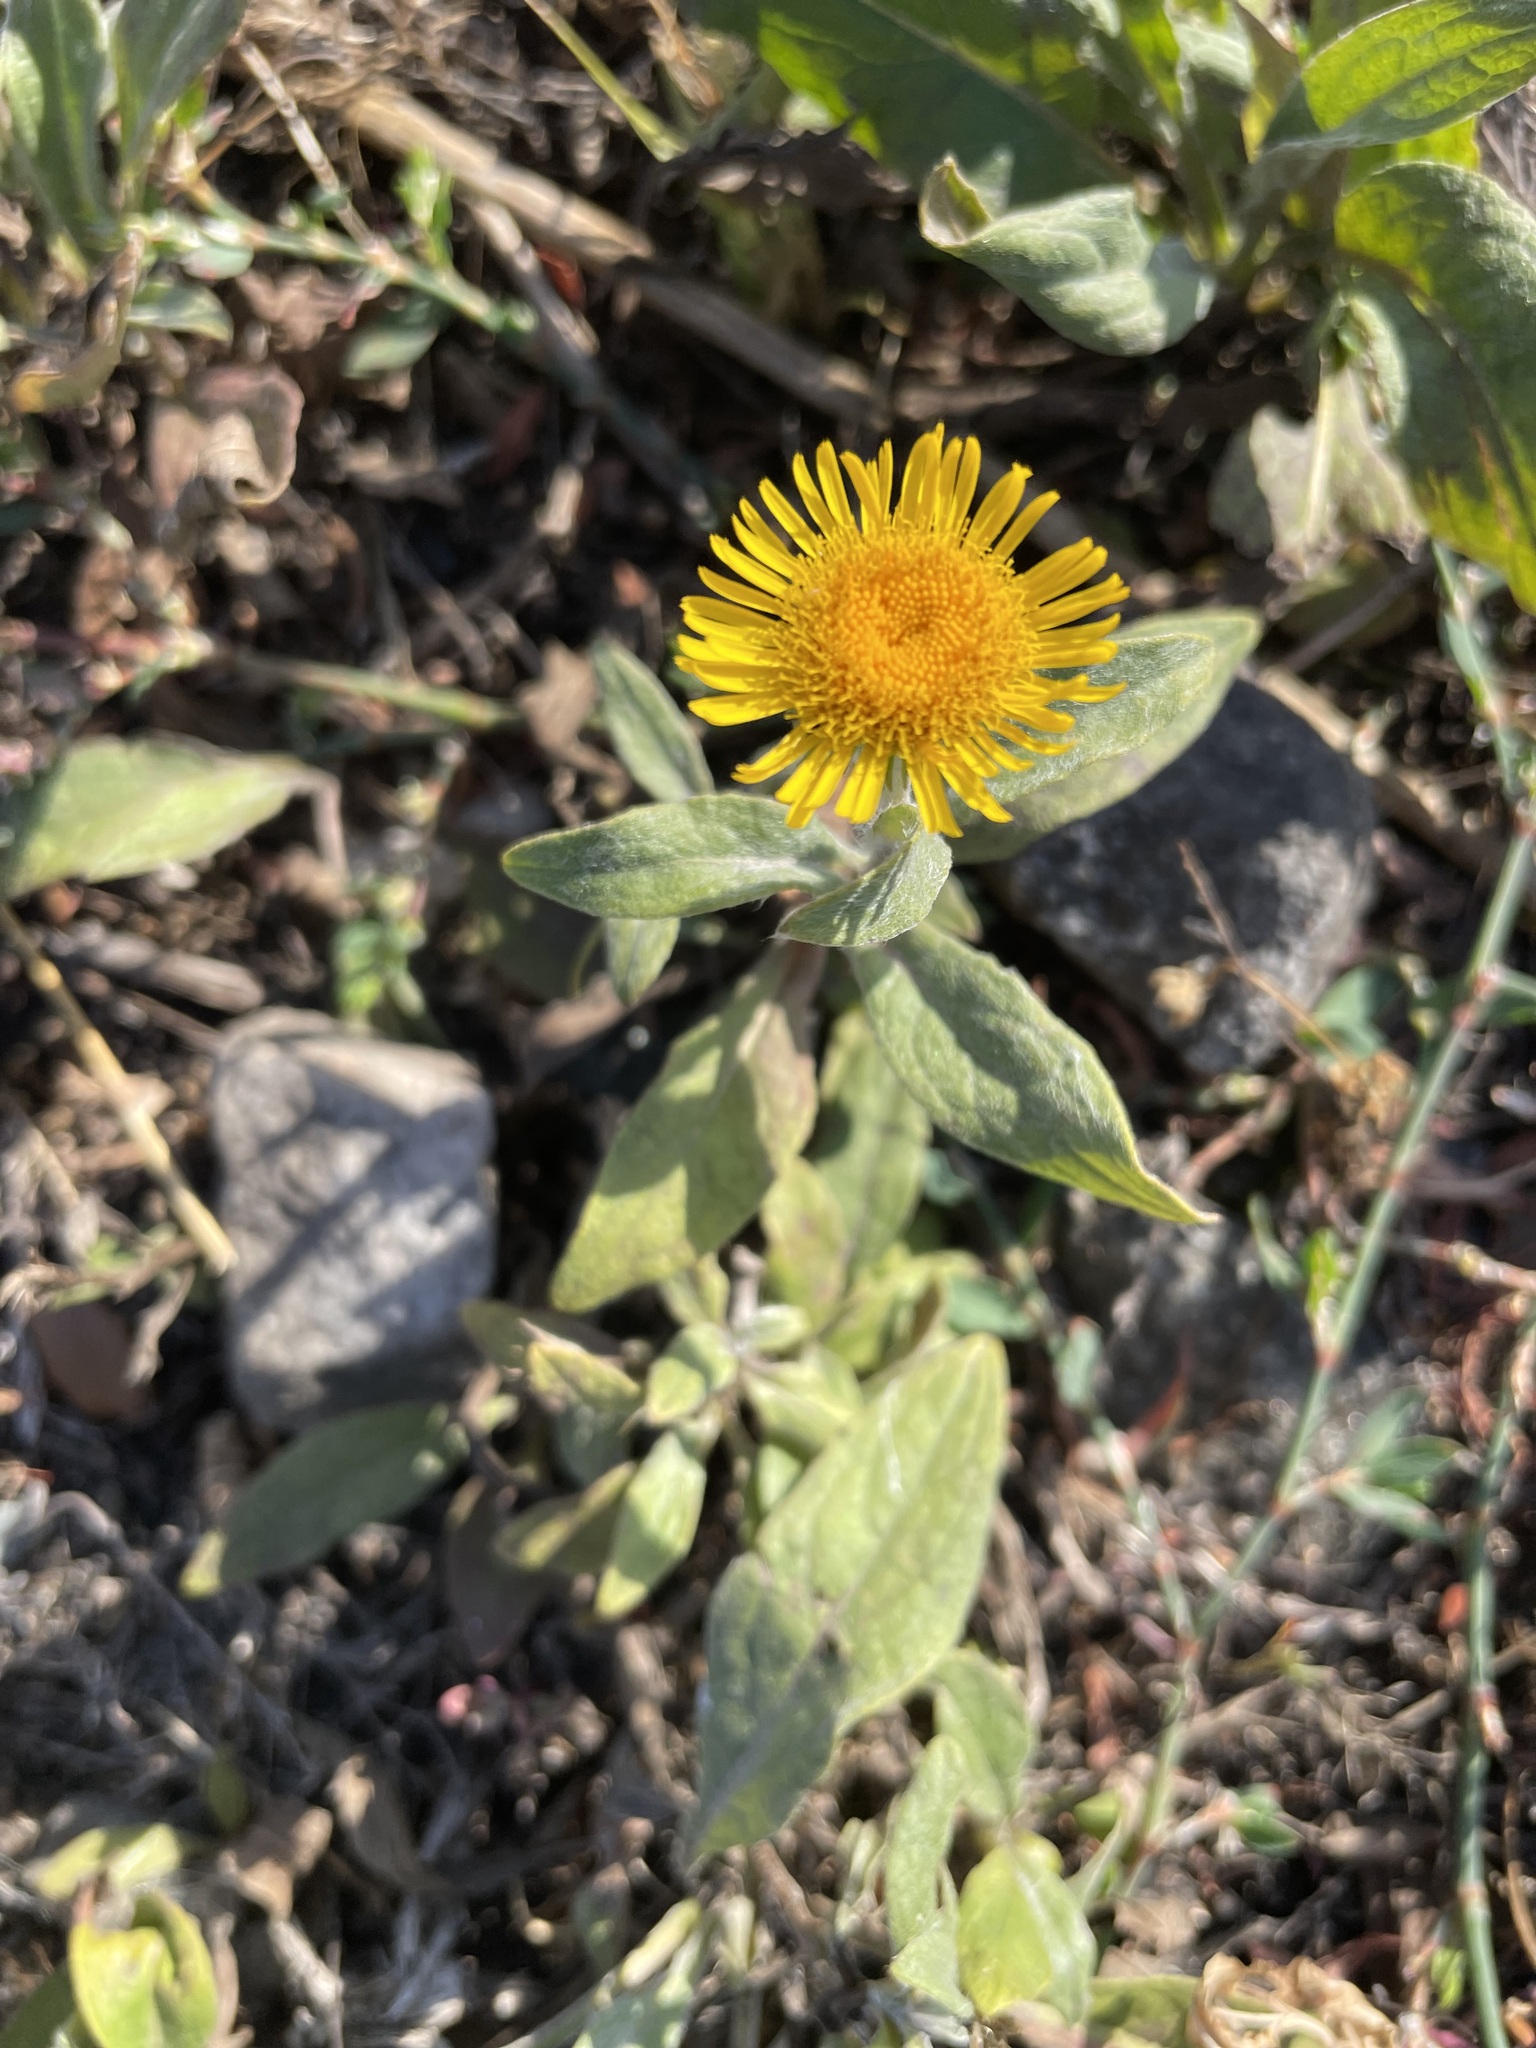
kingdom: Plantae
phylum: Tracheophyta
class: Magnoliopsida
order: Asterales
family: Asteraceae
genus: Pentanema
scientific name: Pentanema britannicum
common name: British elecampane
